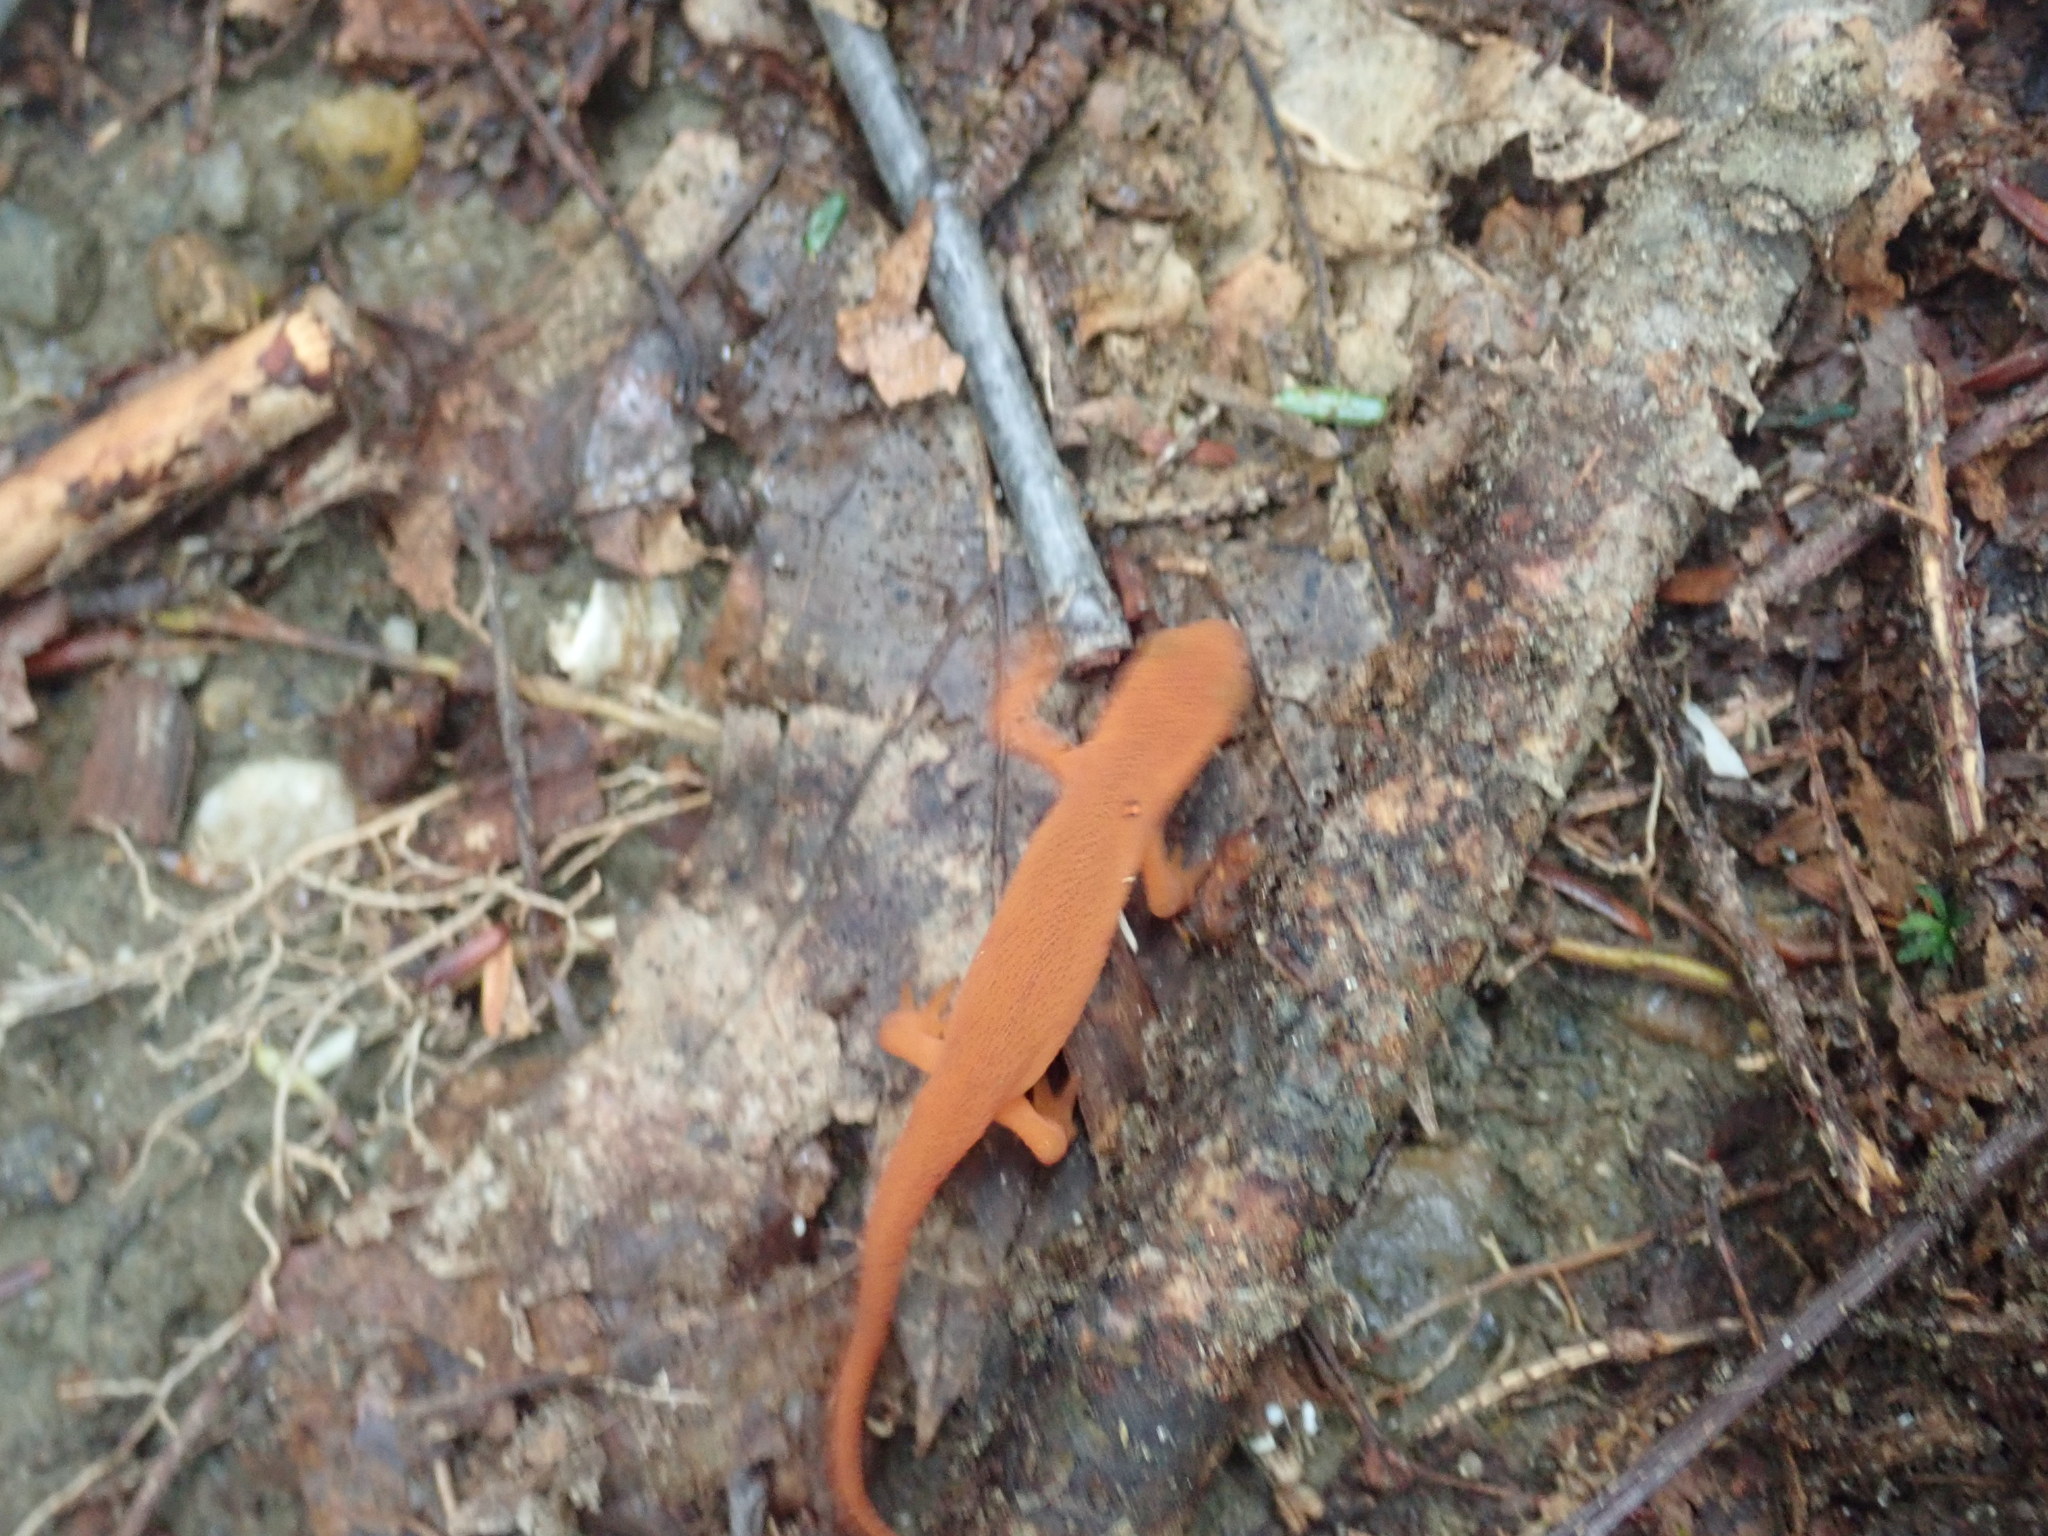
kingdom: Animalia
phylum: Chordata
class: Amphibia
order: Caudata
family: Salamandridae
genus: Notophthalmus
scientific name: Notophthalmus viridescens
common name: Eastern newt
